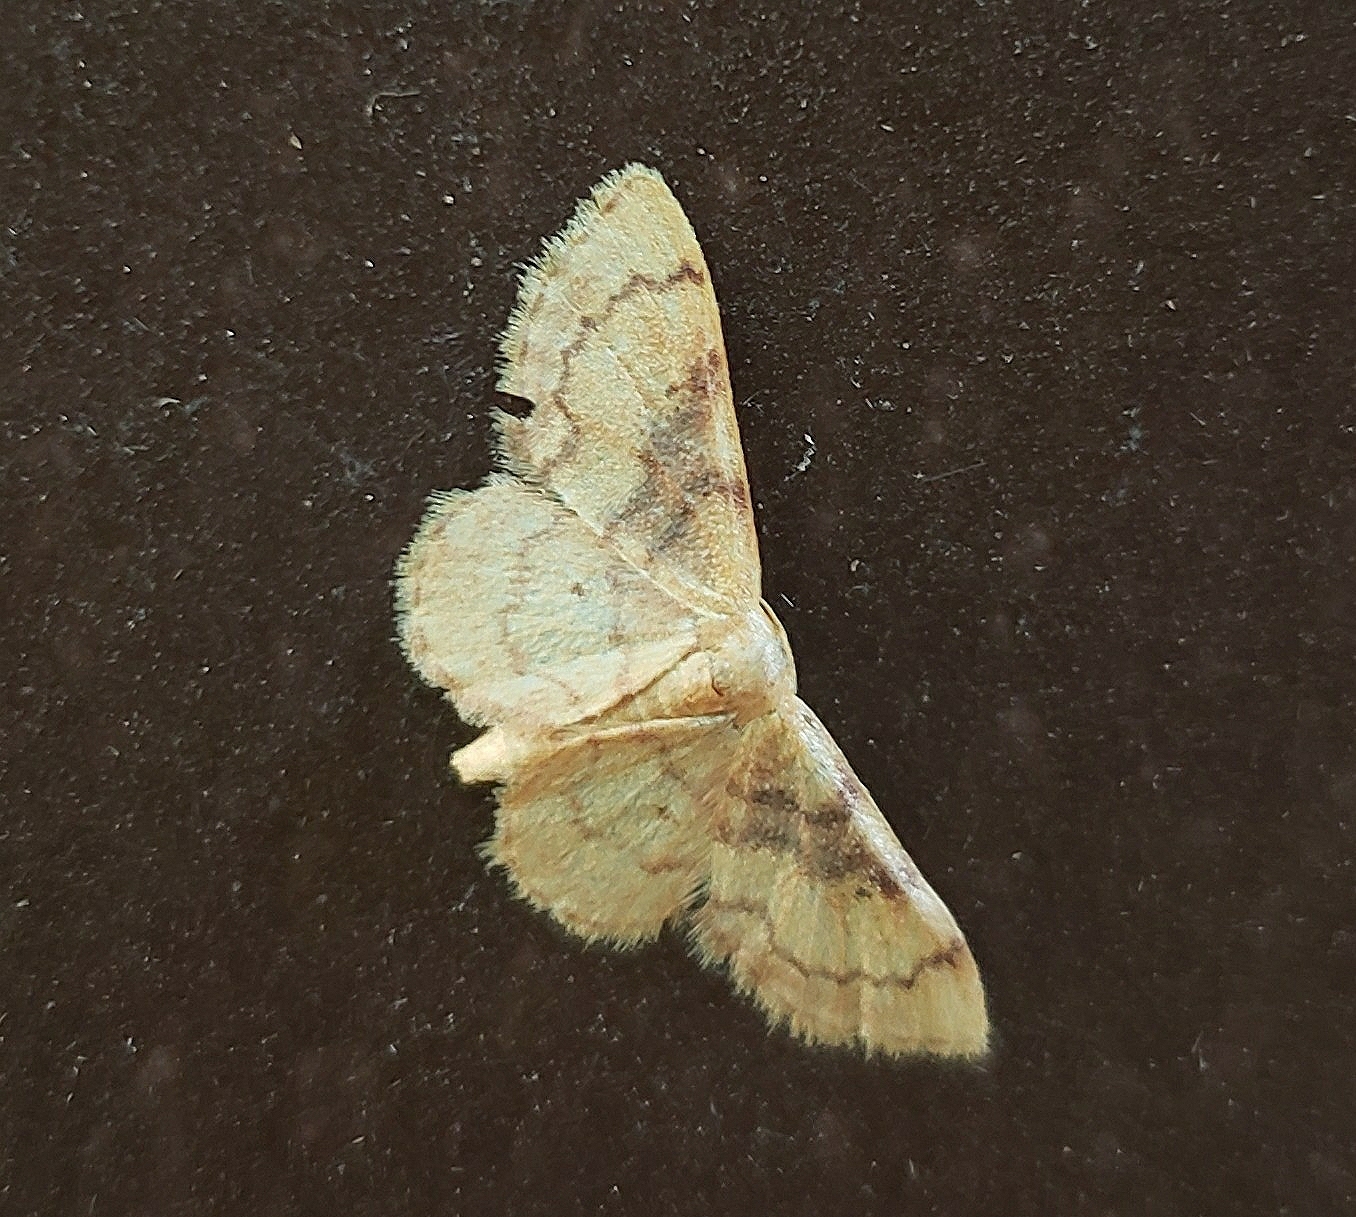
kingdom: Animalia
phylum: Arthropoda
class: Insecta
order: Lepidoptera
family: Geometridae
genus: Idaea
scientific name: Idaea demissaria
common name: Red-bordered wave
